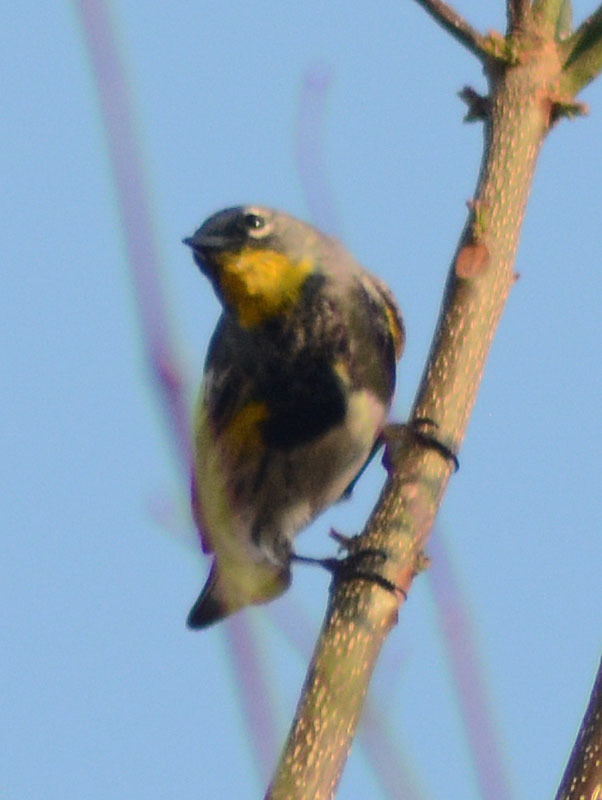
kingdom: Animalia
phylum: Chordata
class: Aves
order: Passeriformes
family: Parulidae
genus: Setophaga
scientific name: Setophaga coronata
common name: Myrtle warbler
